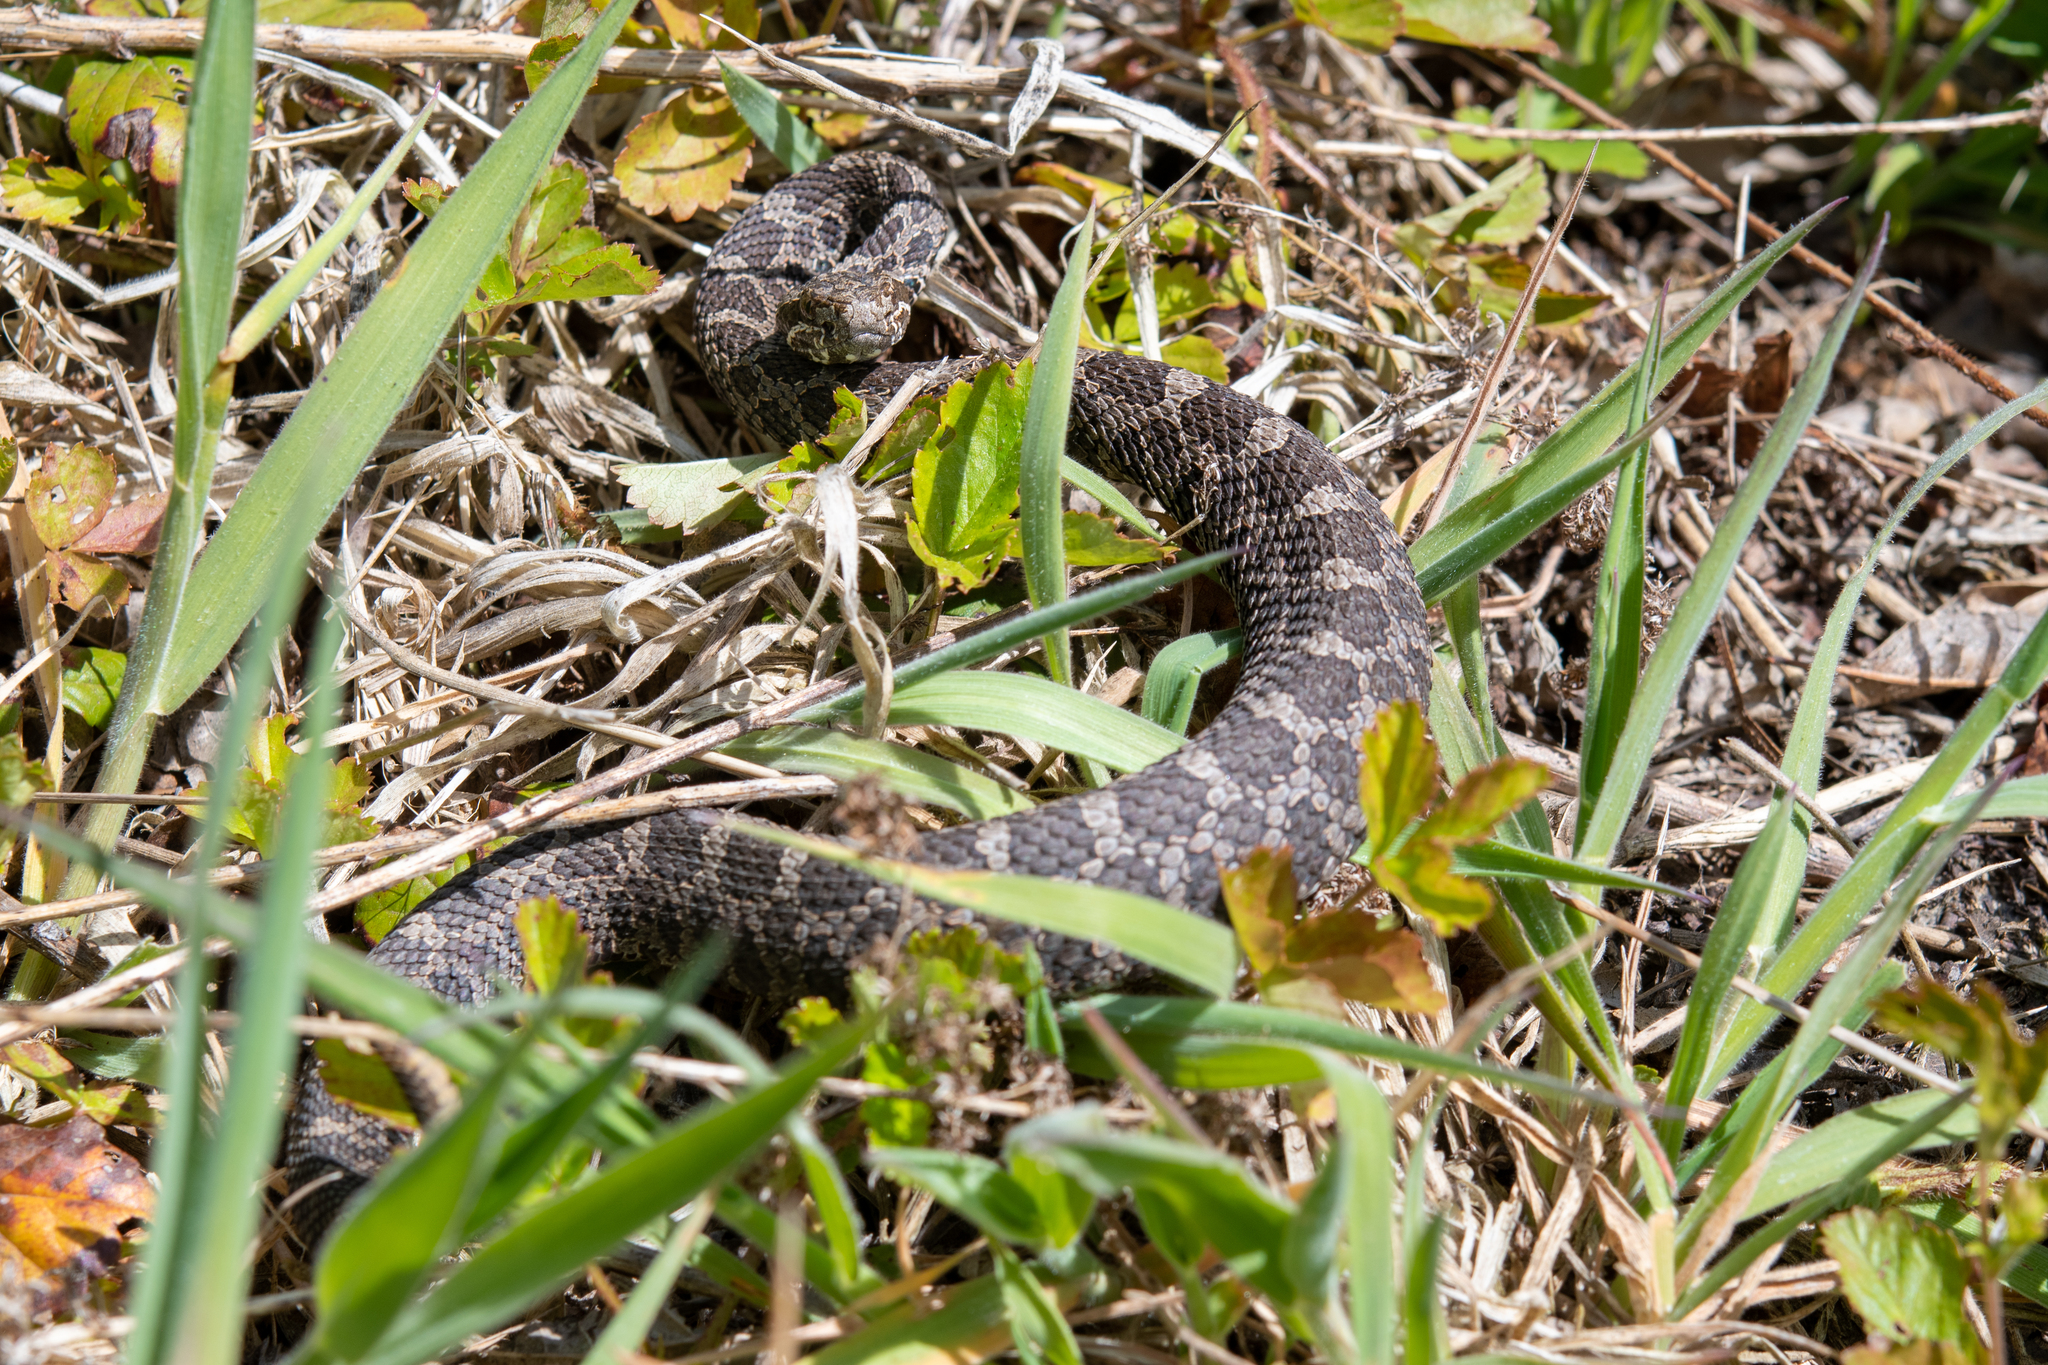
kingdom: Animalia
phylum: Chordata
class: Squamata
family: Viperidae
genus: Sistrurus
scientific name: Sistrurus catenatus
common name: Massasauga
